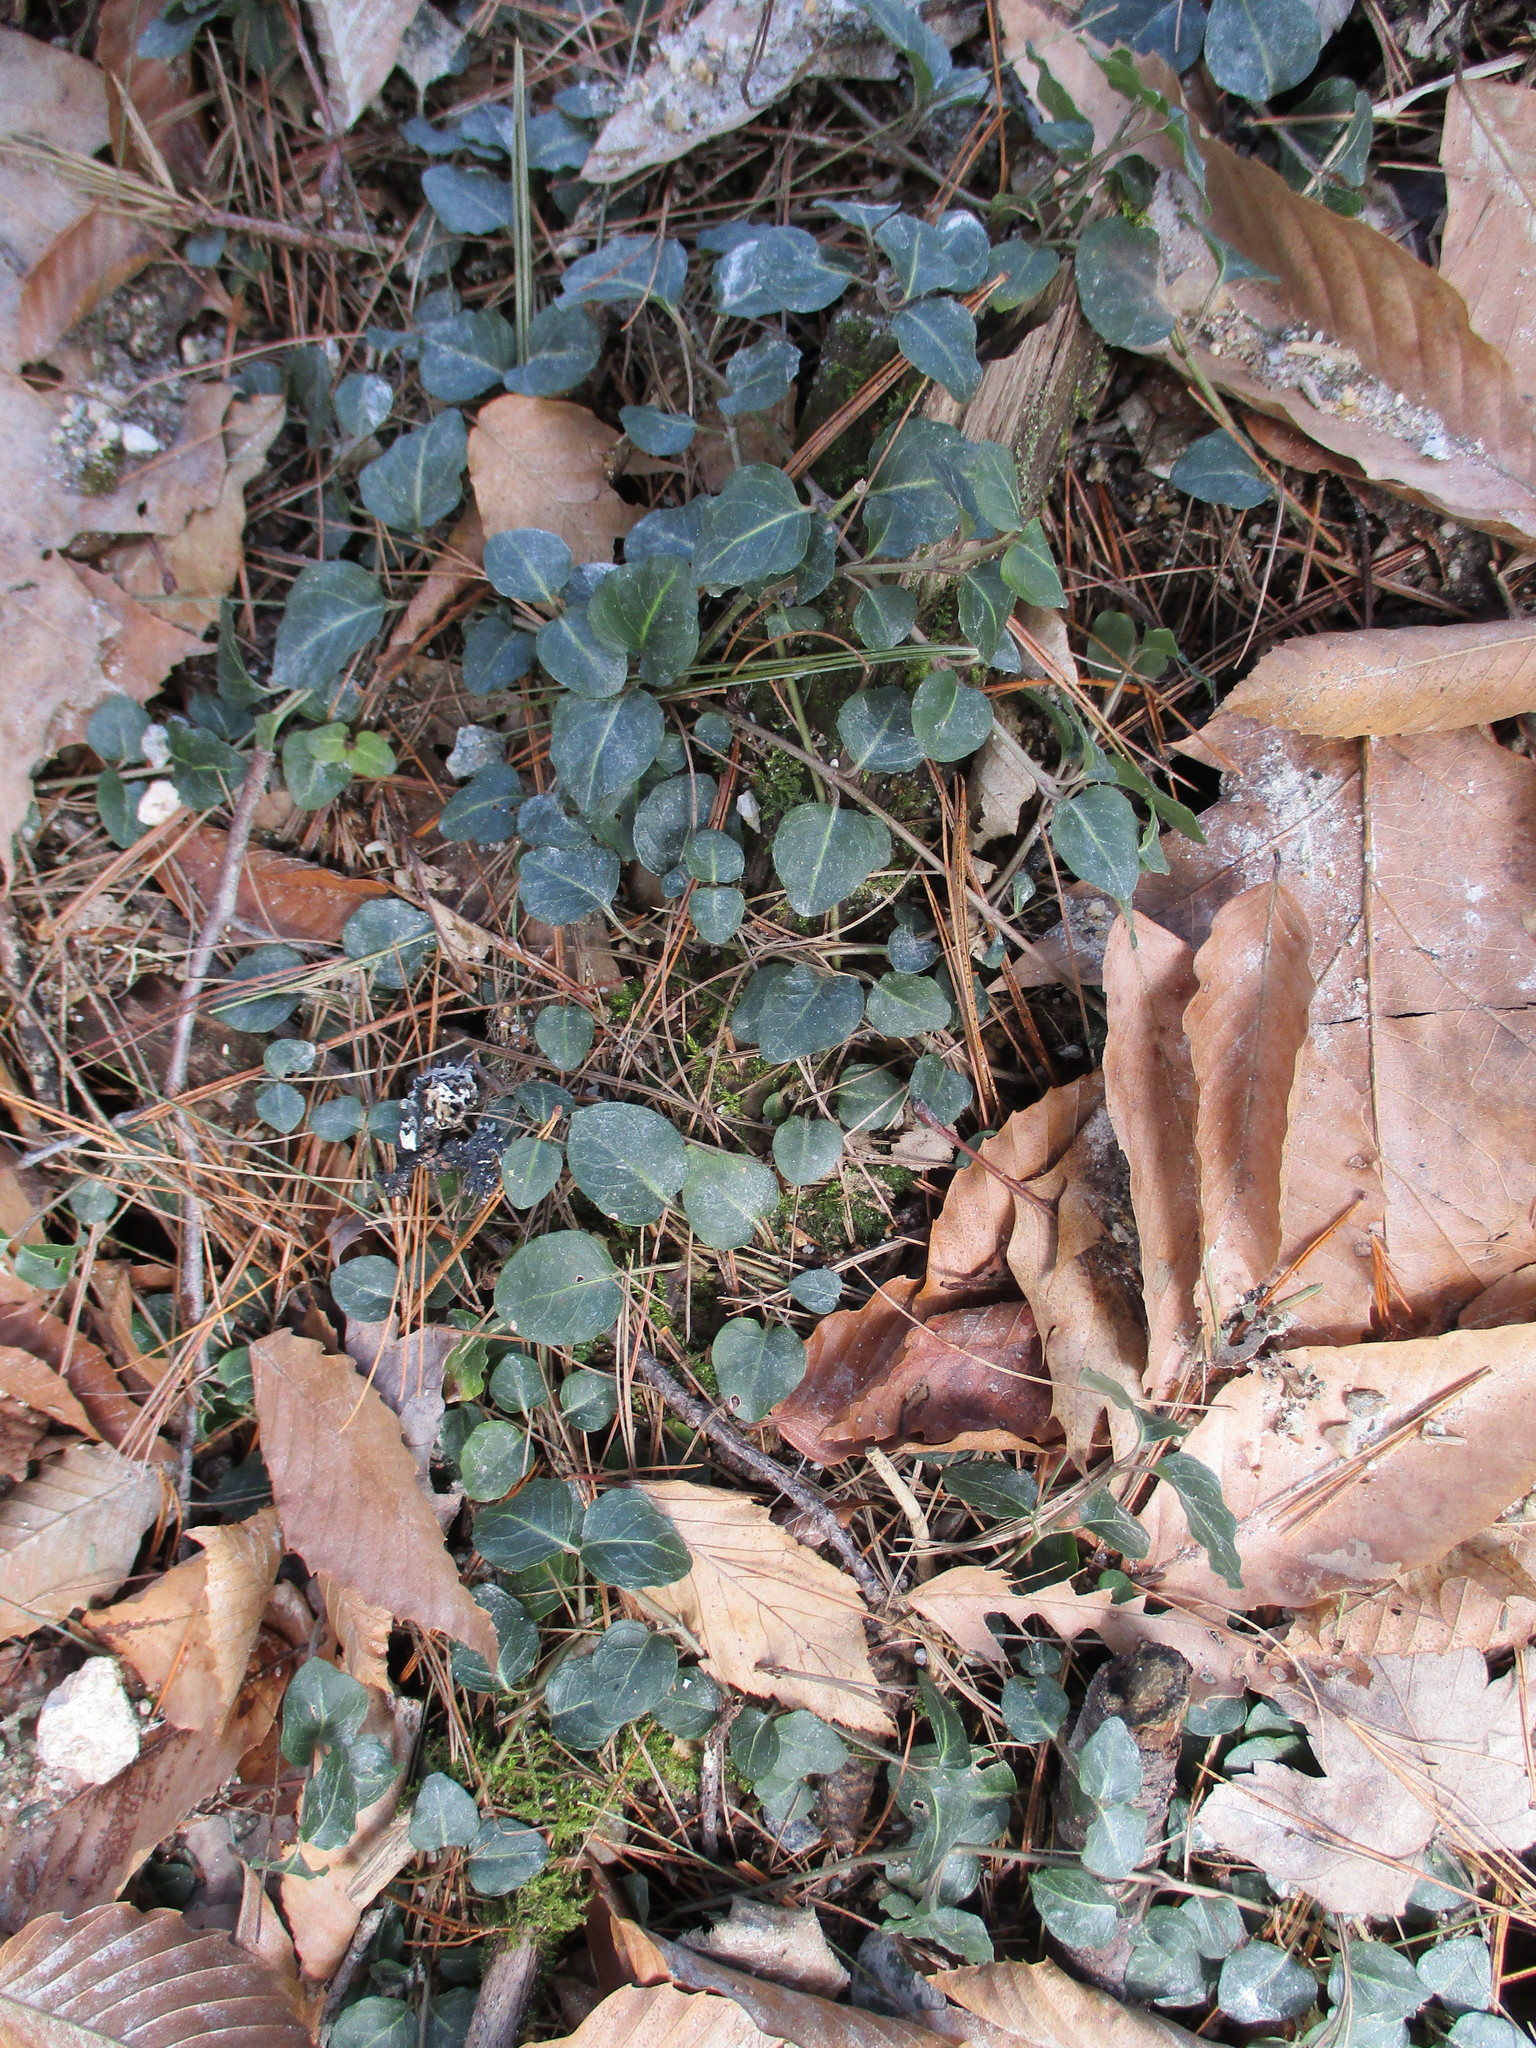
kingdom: Plantae
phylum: Tracheophyta
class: Magnoliopsida
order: Gentianales
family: Rubiaceae
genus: Mitchella
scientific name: Mitchella repens
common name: Partridge-berry
